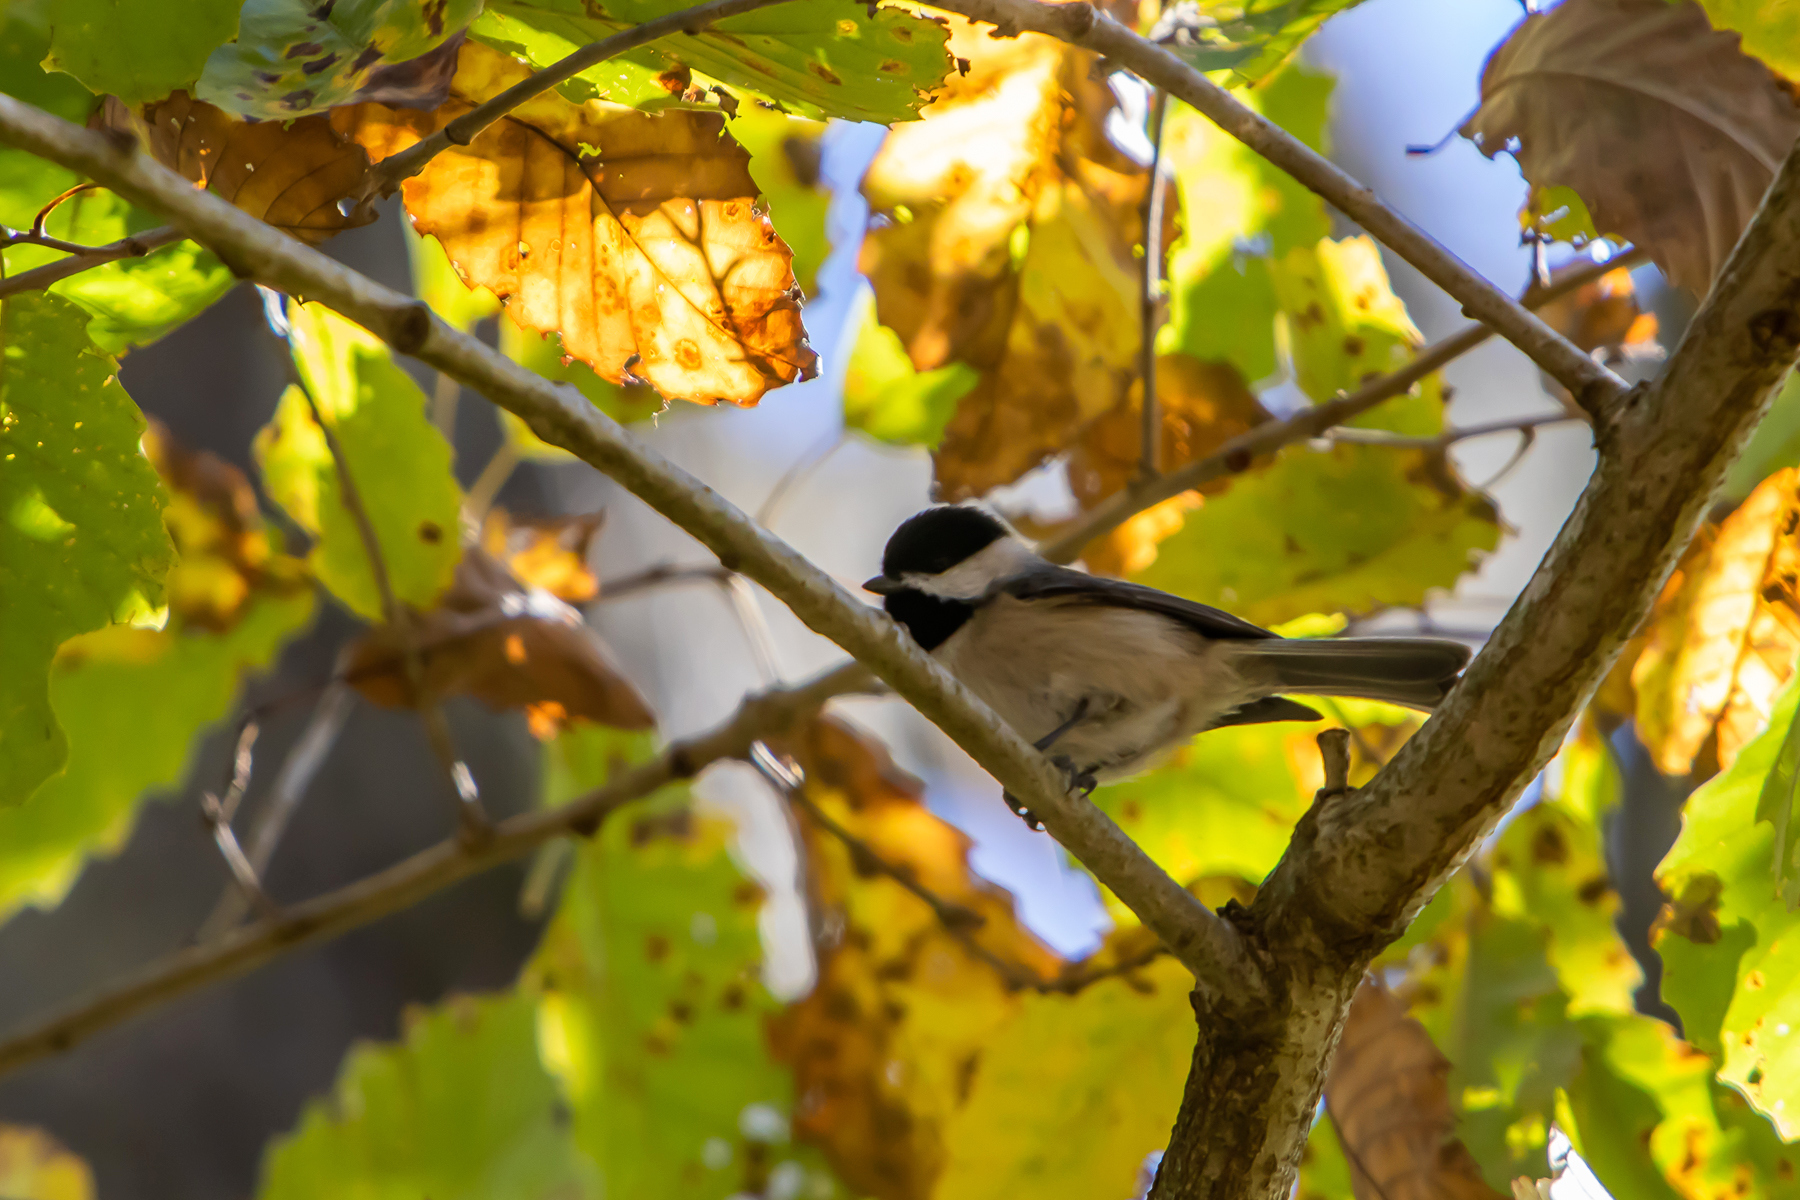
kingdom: Animalia
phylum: Chordata
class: Aves
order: Passeriformes
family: Paridae
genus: Poecile
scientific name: Poecile carolinensis
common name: Carolina chickadee
